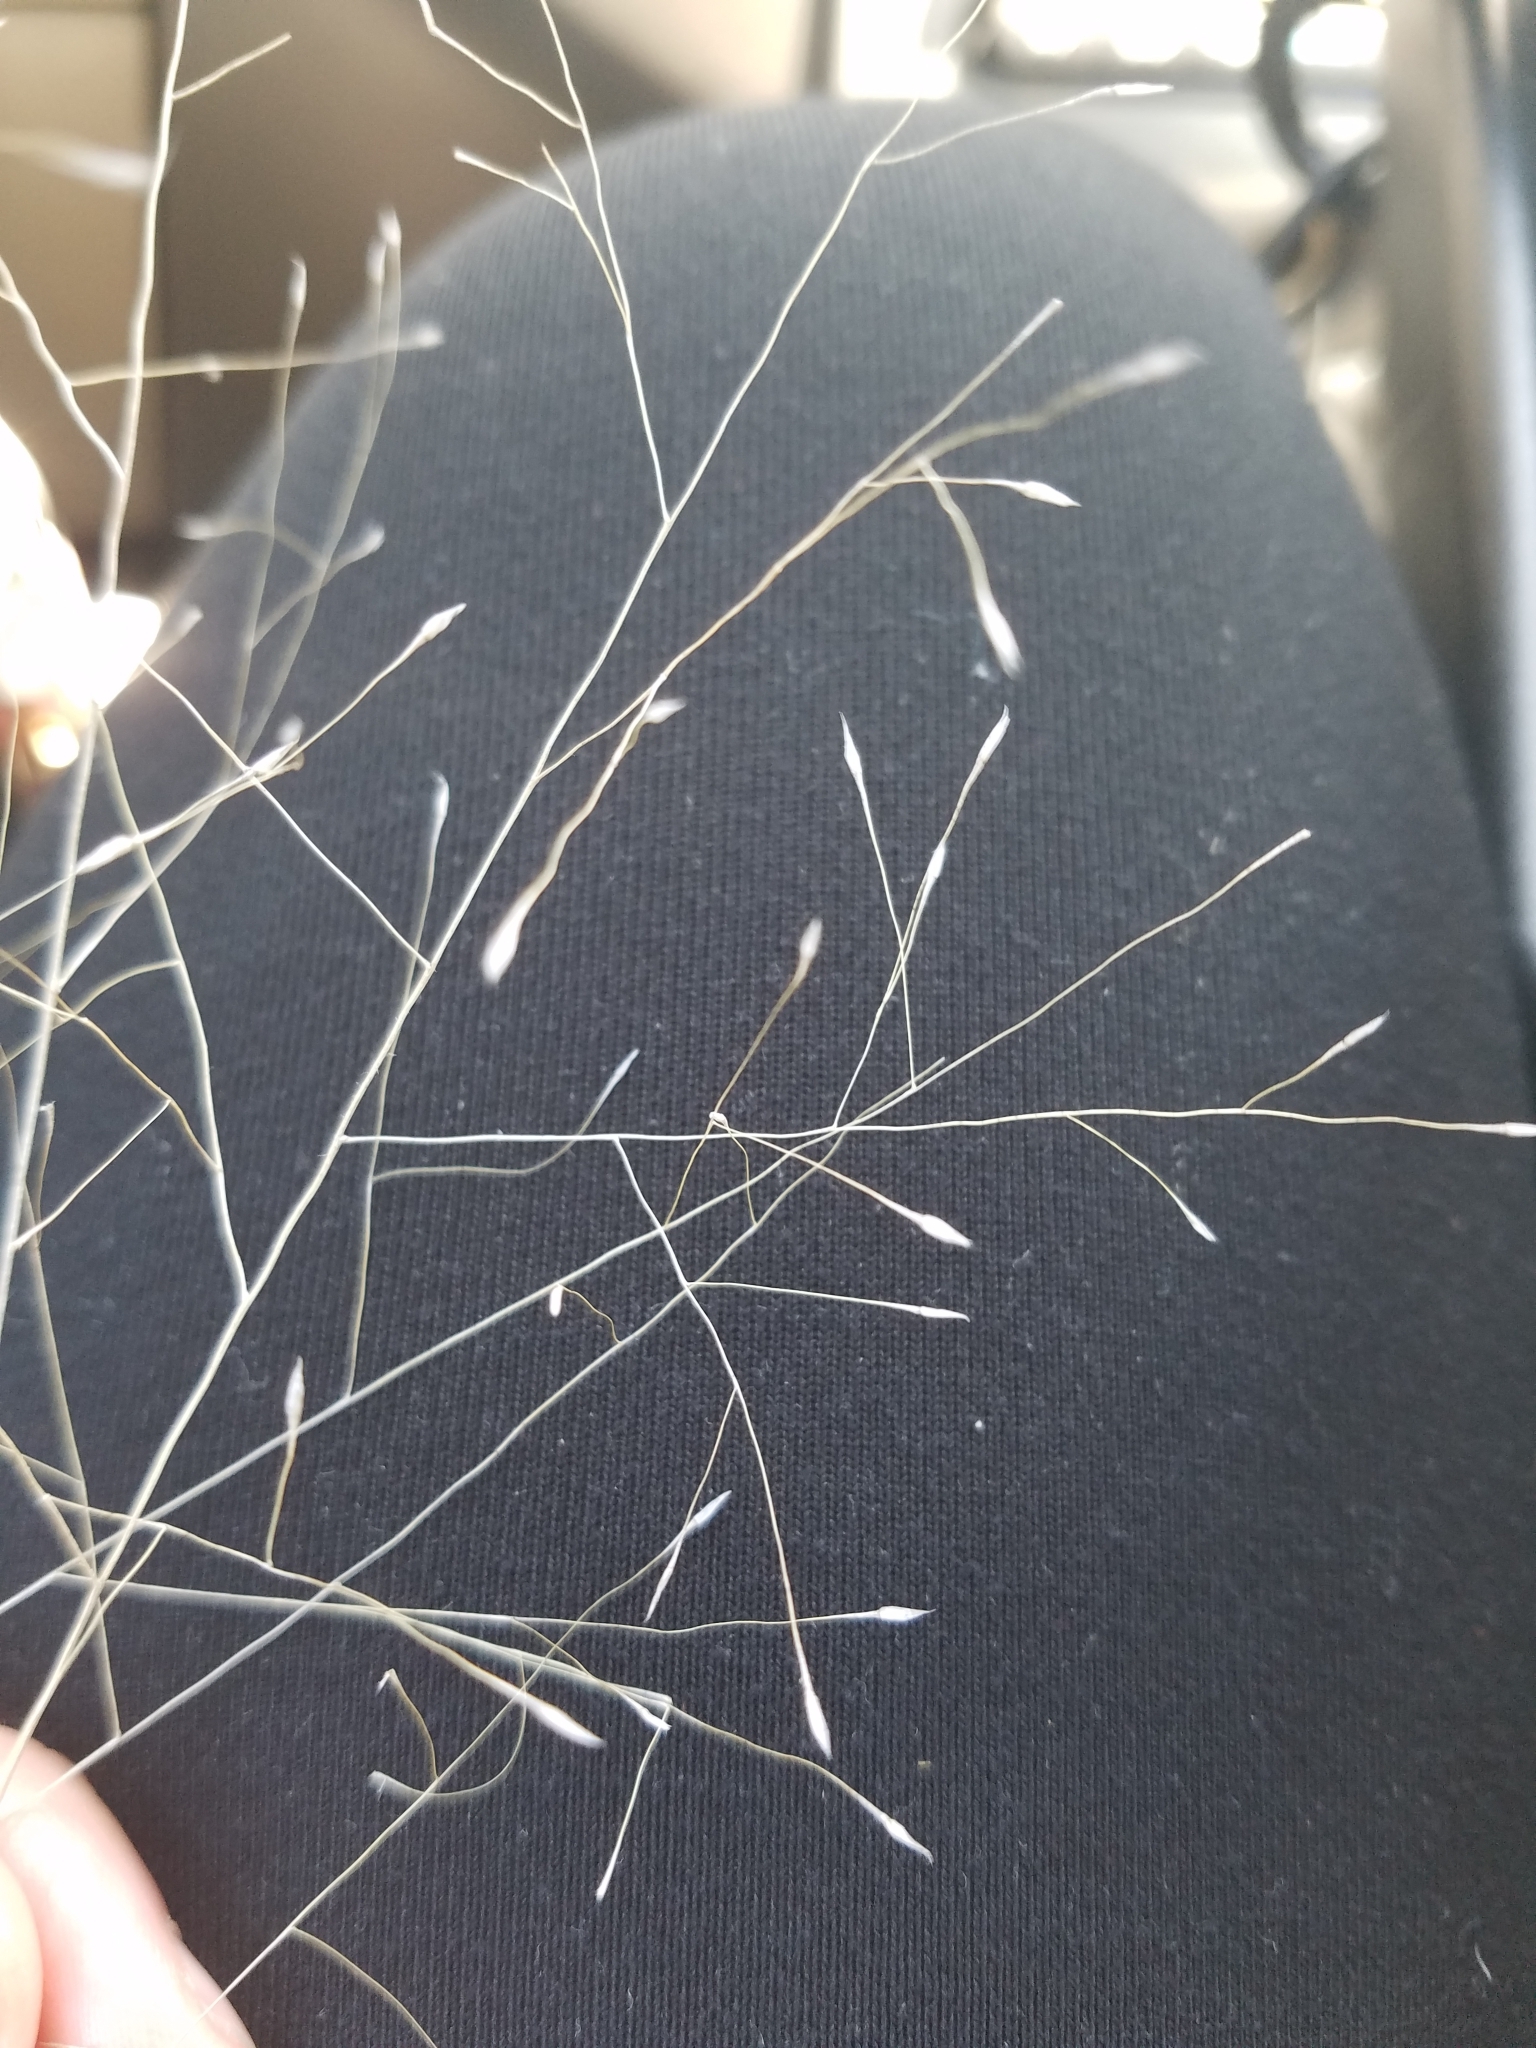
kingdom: Plantae
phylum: Tracheophyta
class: Liliopsida
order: Poales
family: Poaceae
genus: Muhlenbergia
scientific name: Muhlenbergia reverchonii
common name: Seep muhly
